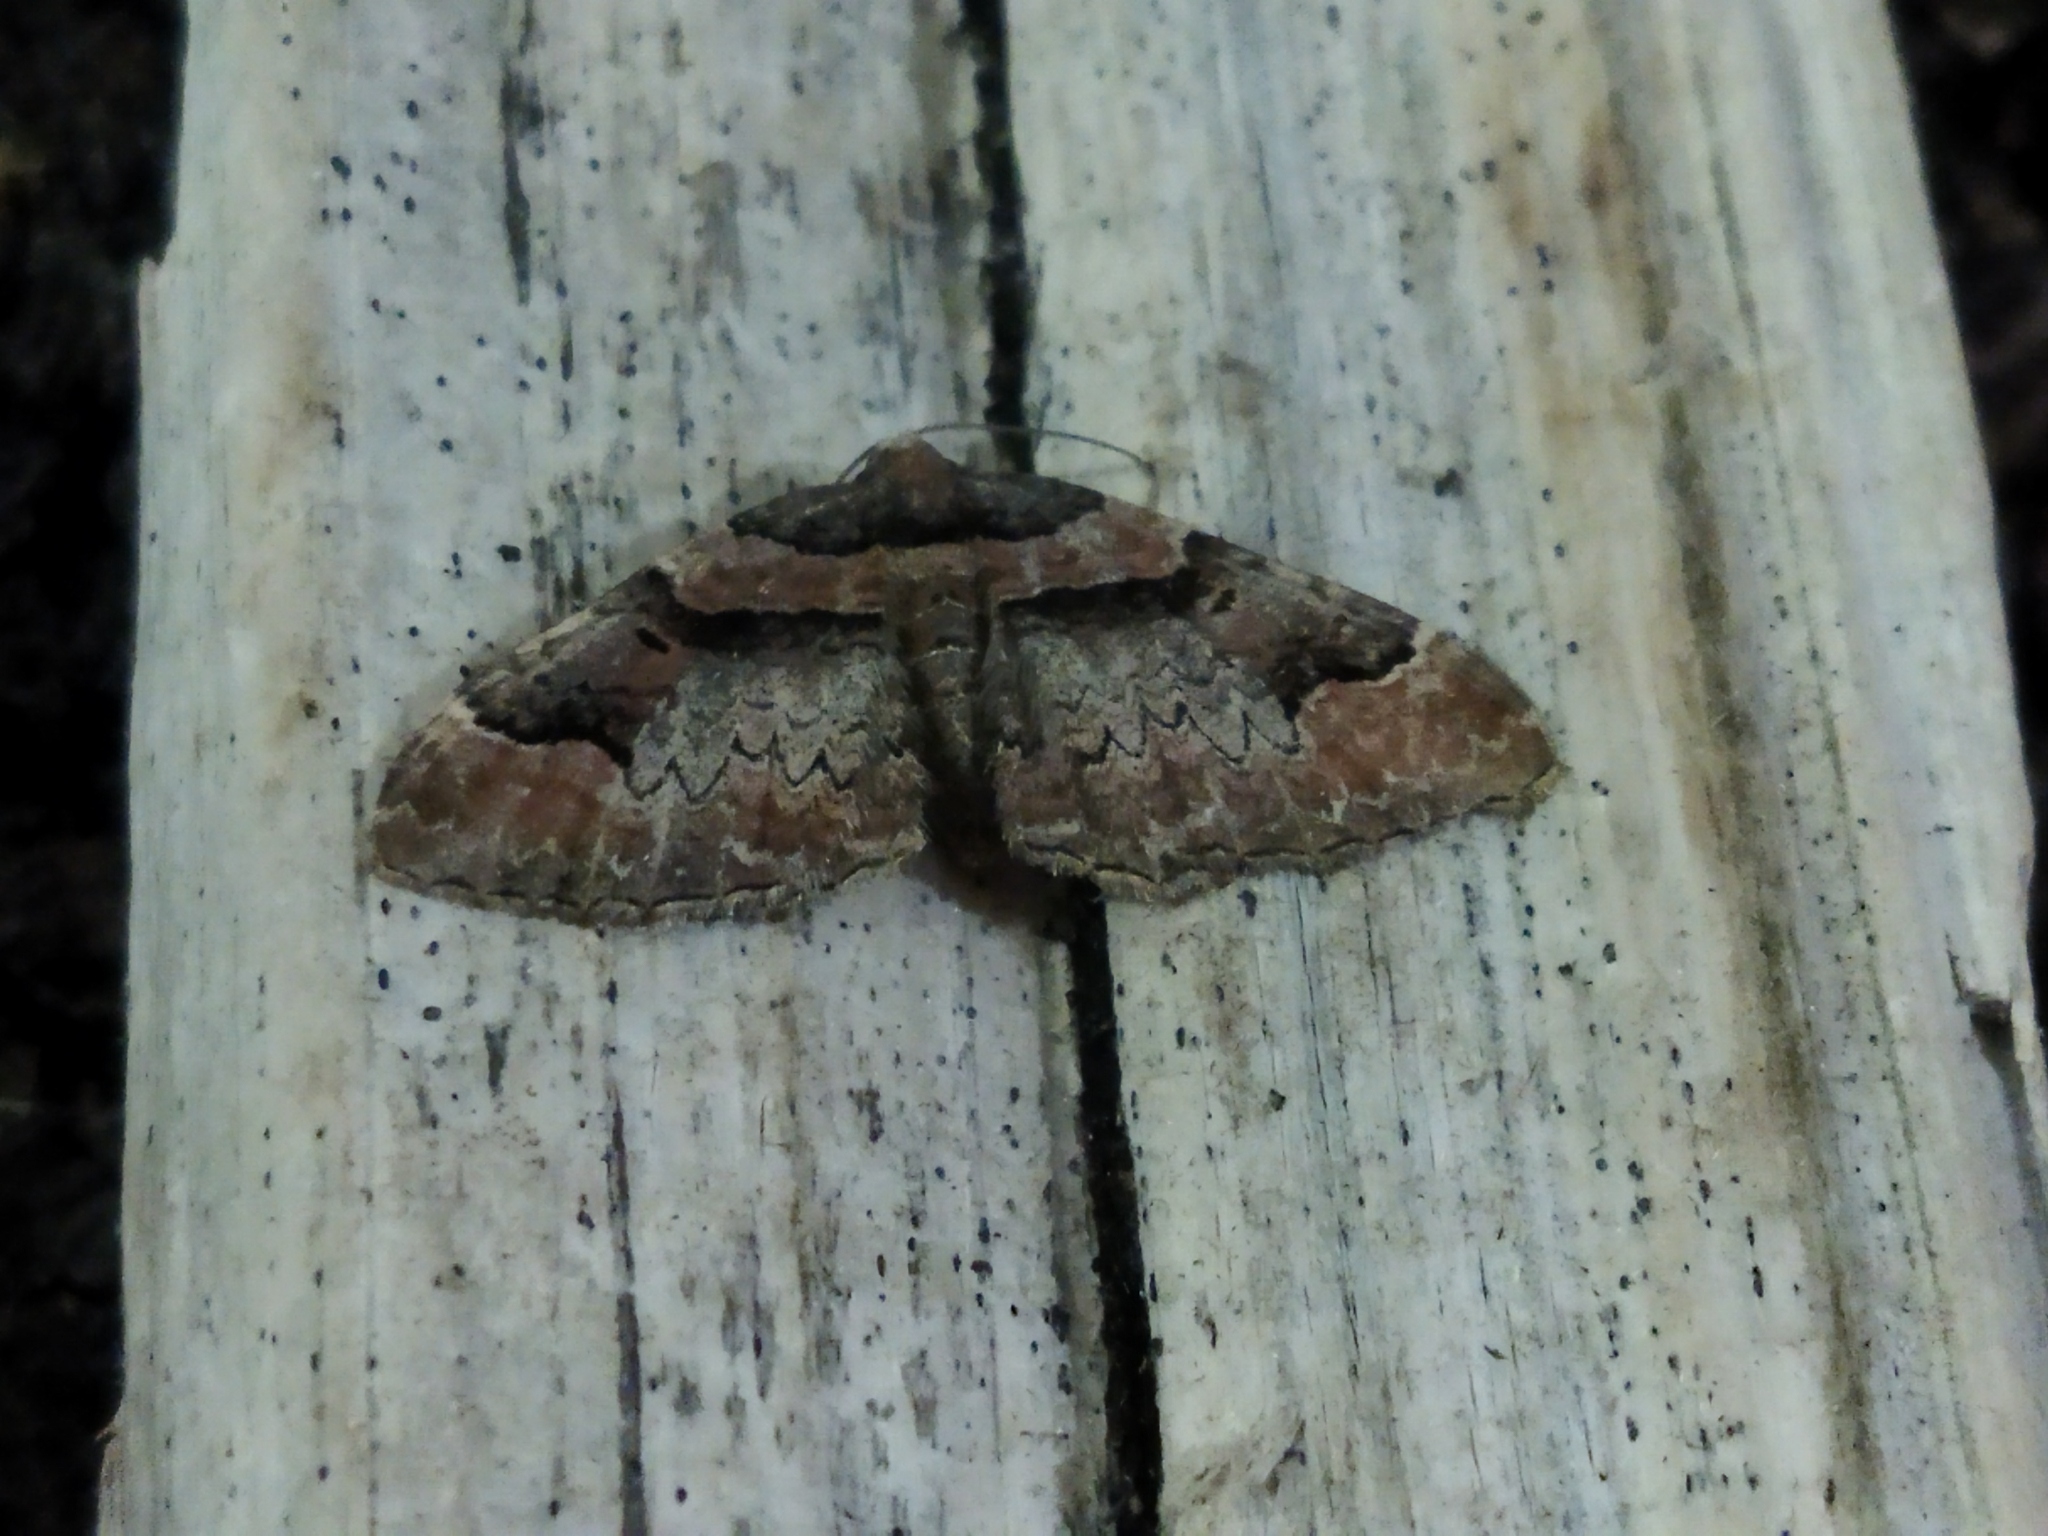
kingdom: Animalia
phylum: Arthropoda
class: Insecta
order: Lepidoptera
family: Geometridae
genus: Catarhoe
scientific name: Catarhoe rubidata
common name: Ruddy carpet
